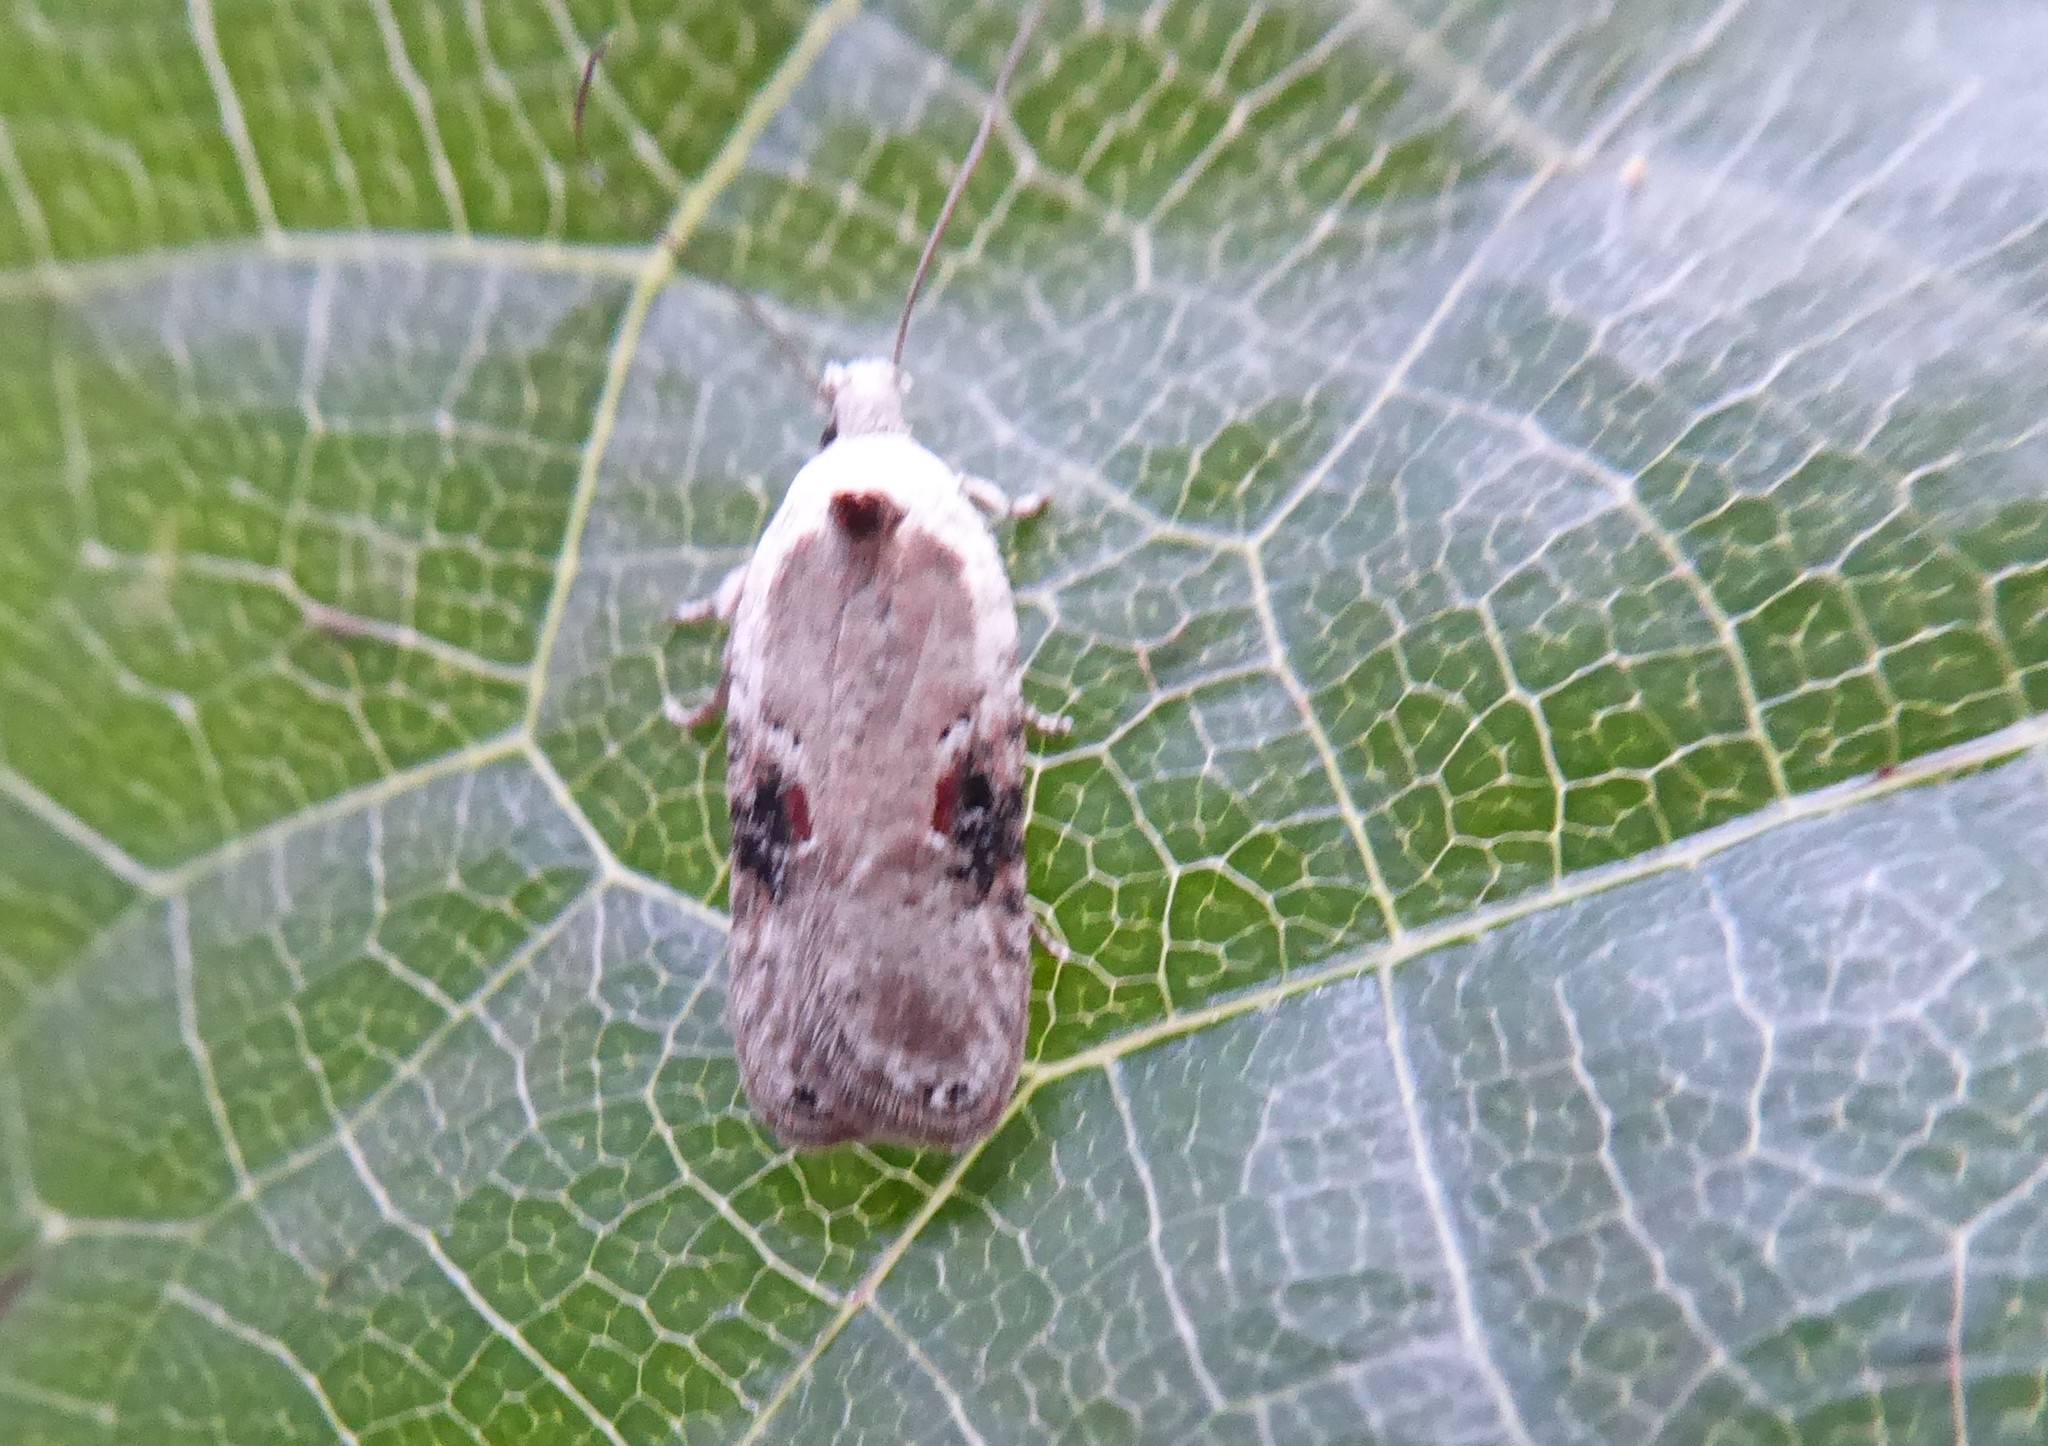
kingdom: Animalia
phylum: Arthropoda
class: Insecta
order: Lepidoptera
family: Depressariidae
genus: Agonopterix
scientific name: Agonopterix alstroemeriana
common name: Moth
